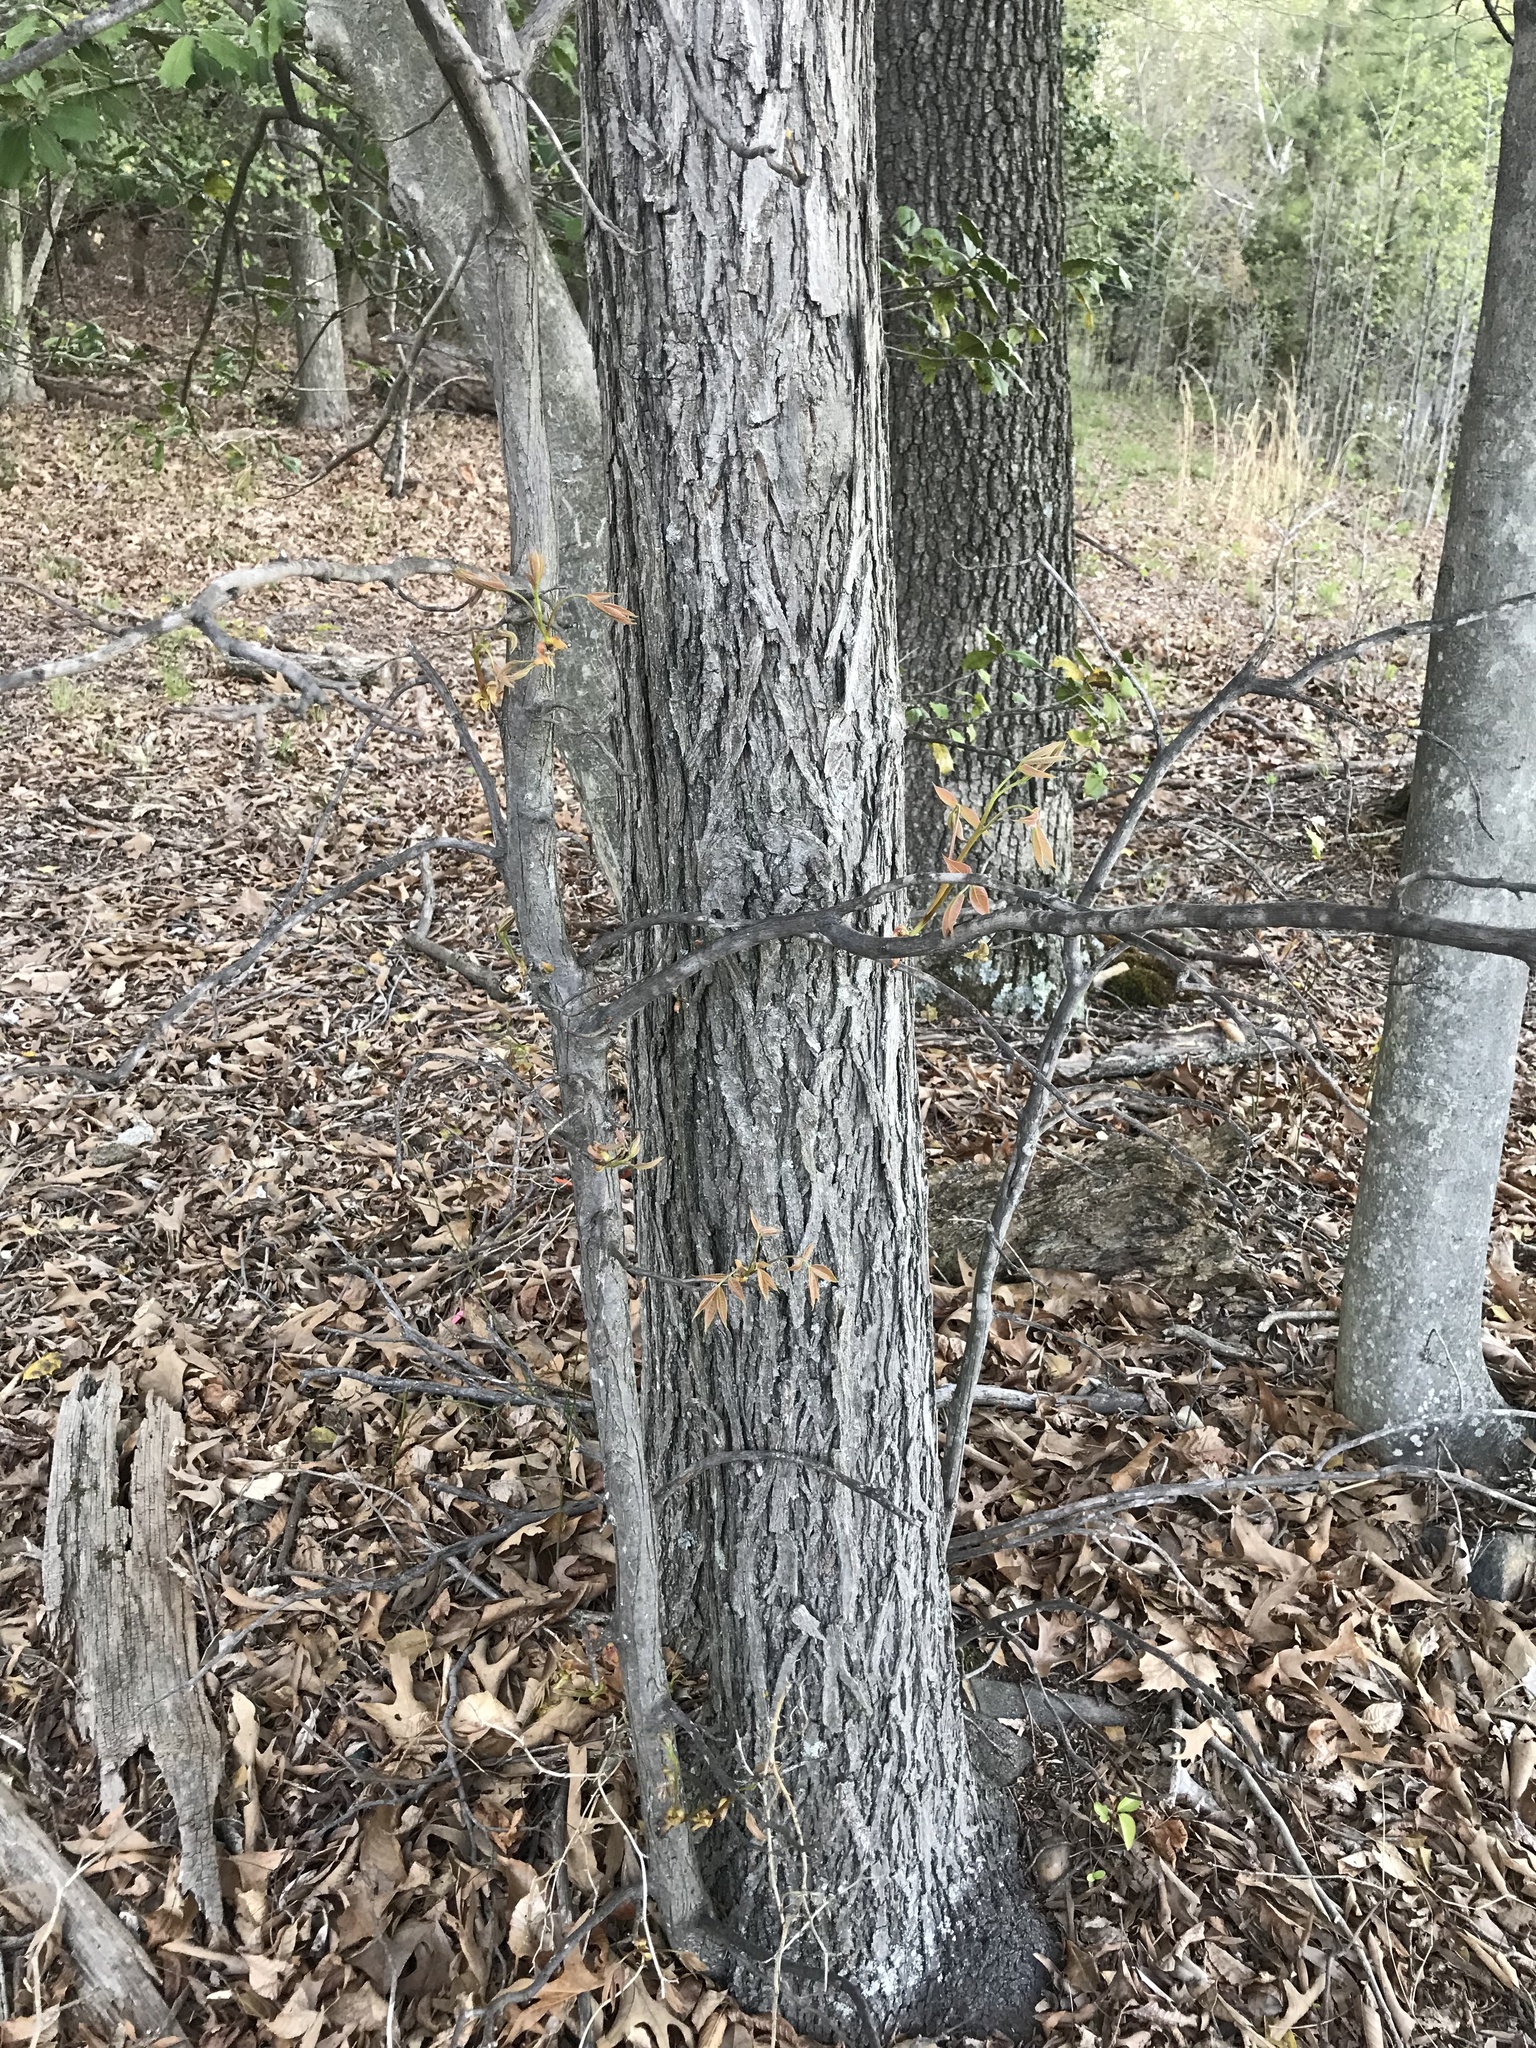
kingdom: Plantae
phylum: Tracheophyta
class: Magnoliopsida
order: Fagales
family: Juglandaceae
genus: Carya
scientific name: Carya alba
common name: Mockernut hickory
